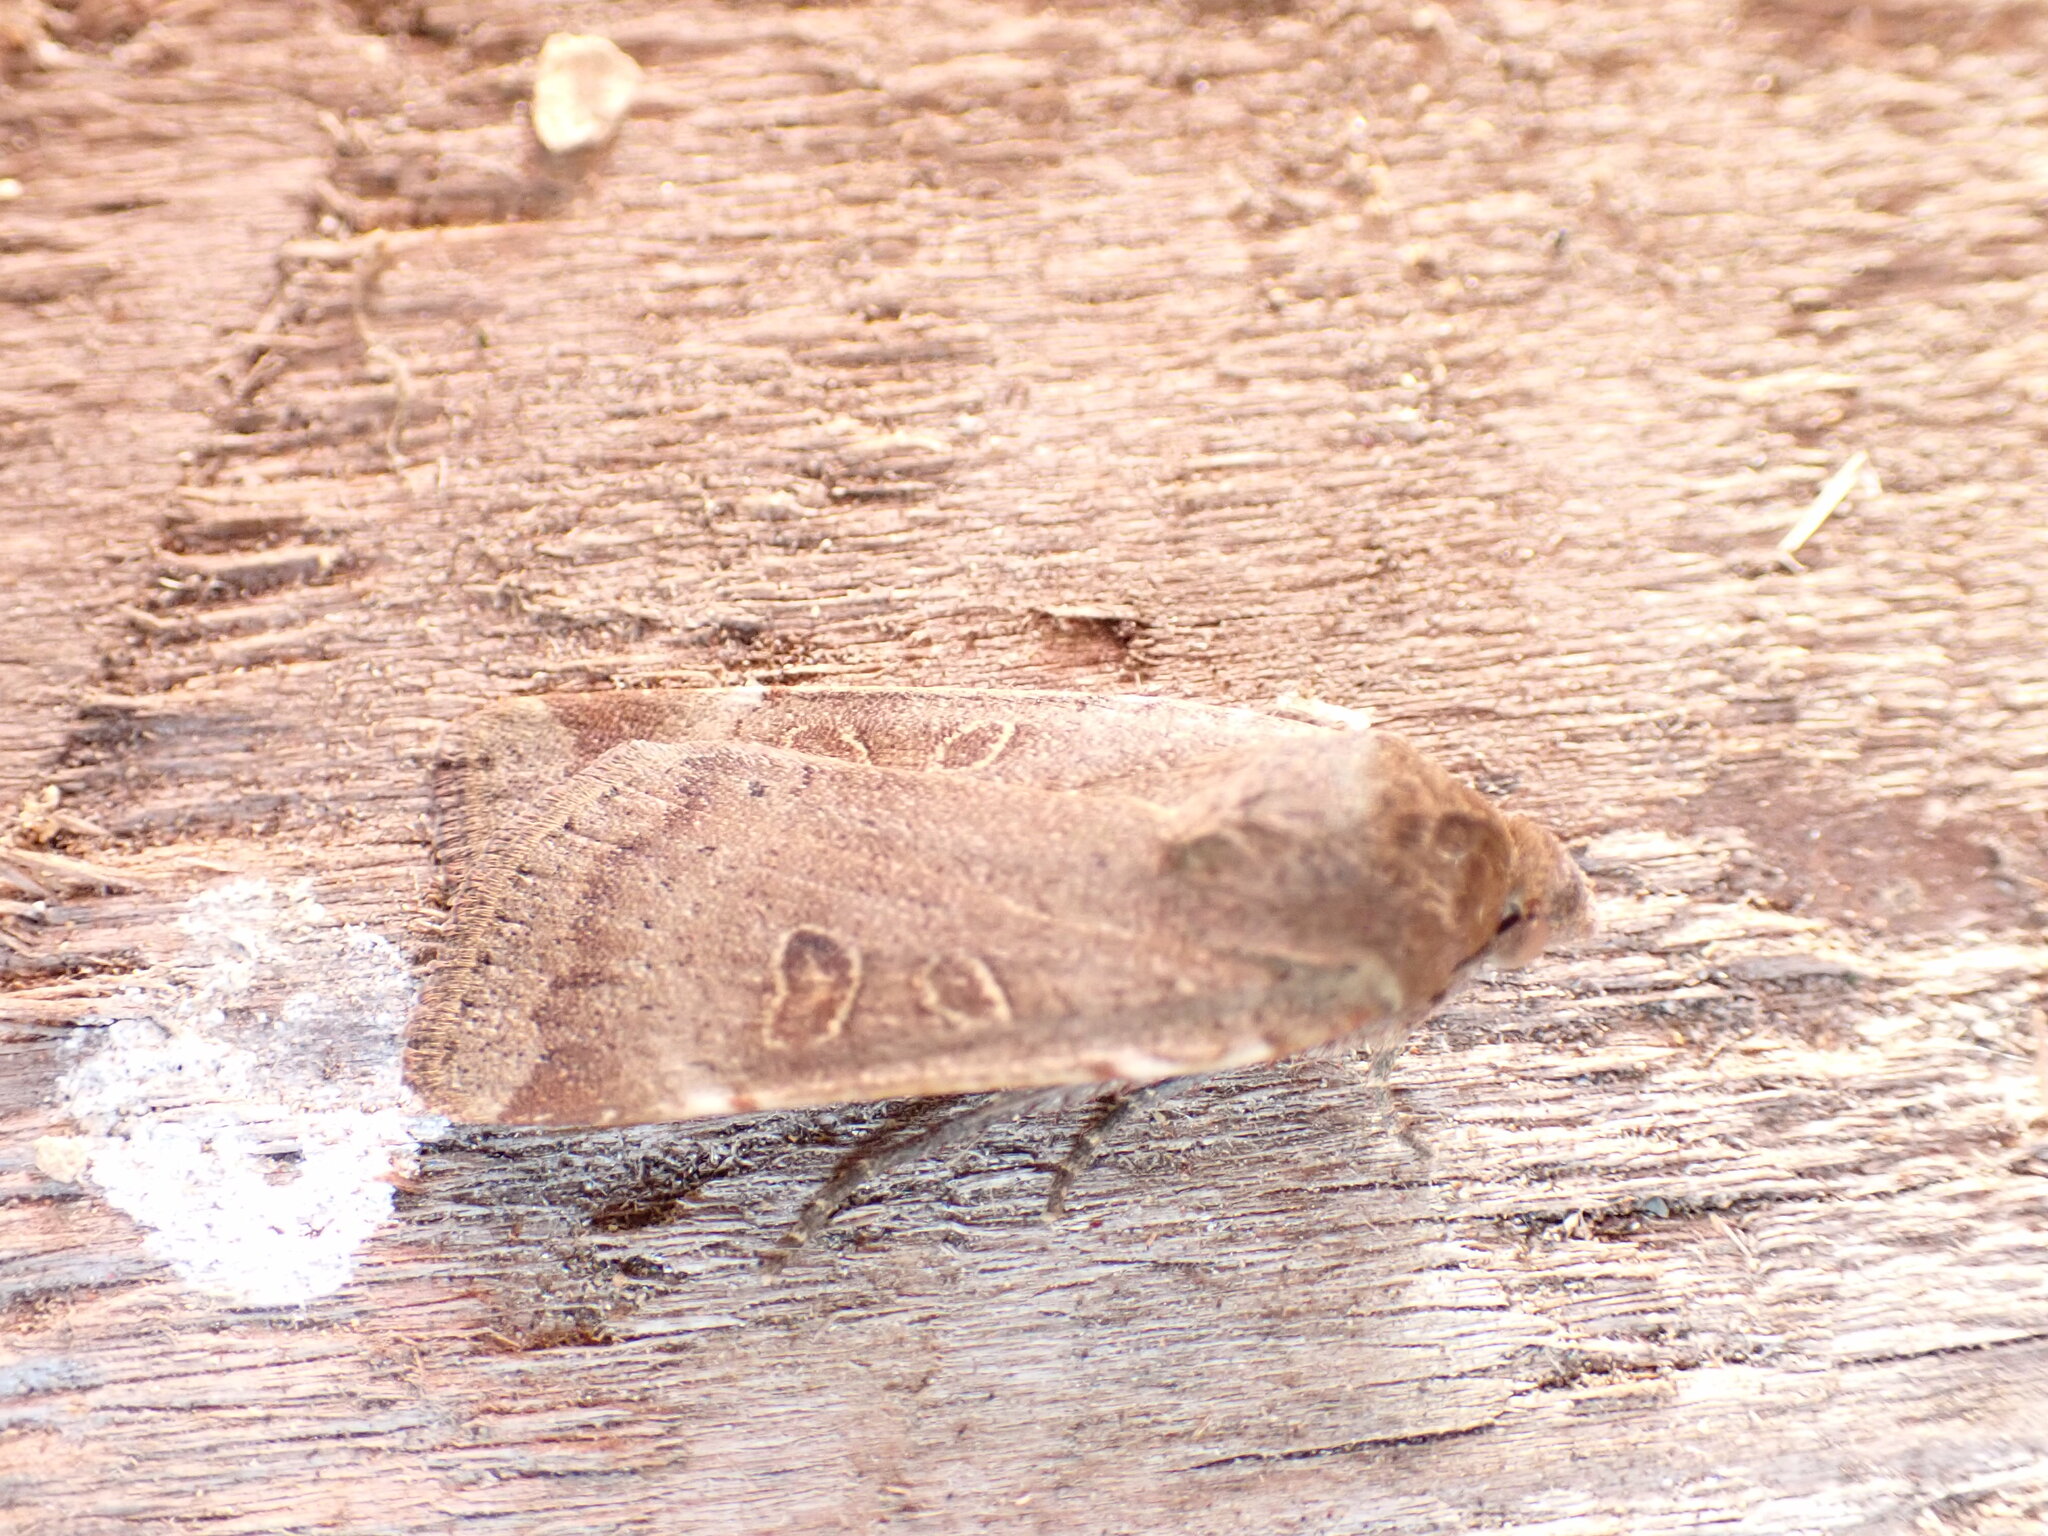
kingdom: Animalia
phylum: Arthropoda
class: Insecta
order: Lepidoptera
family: Noctuidae
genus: Noctua
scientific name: Noctua comes
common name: Lesser yellow underwing
